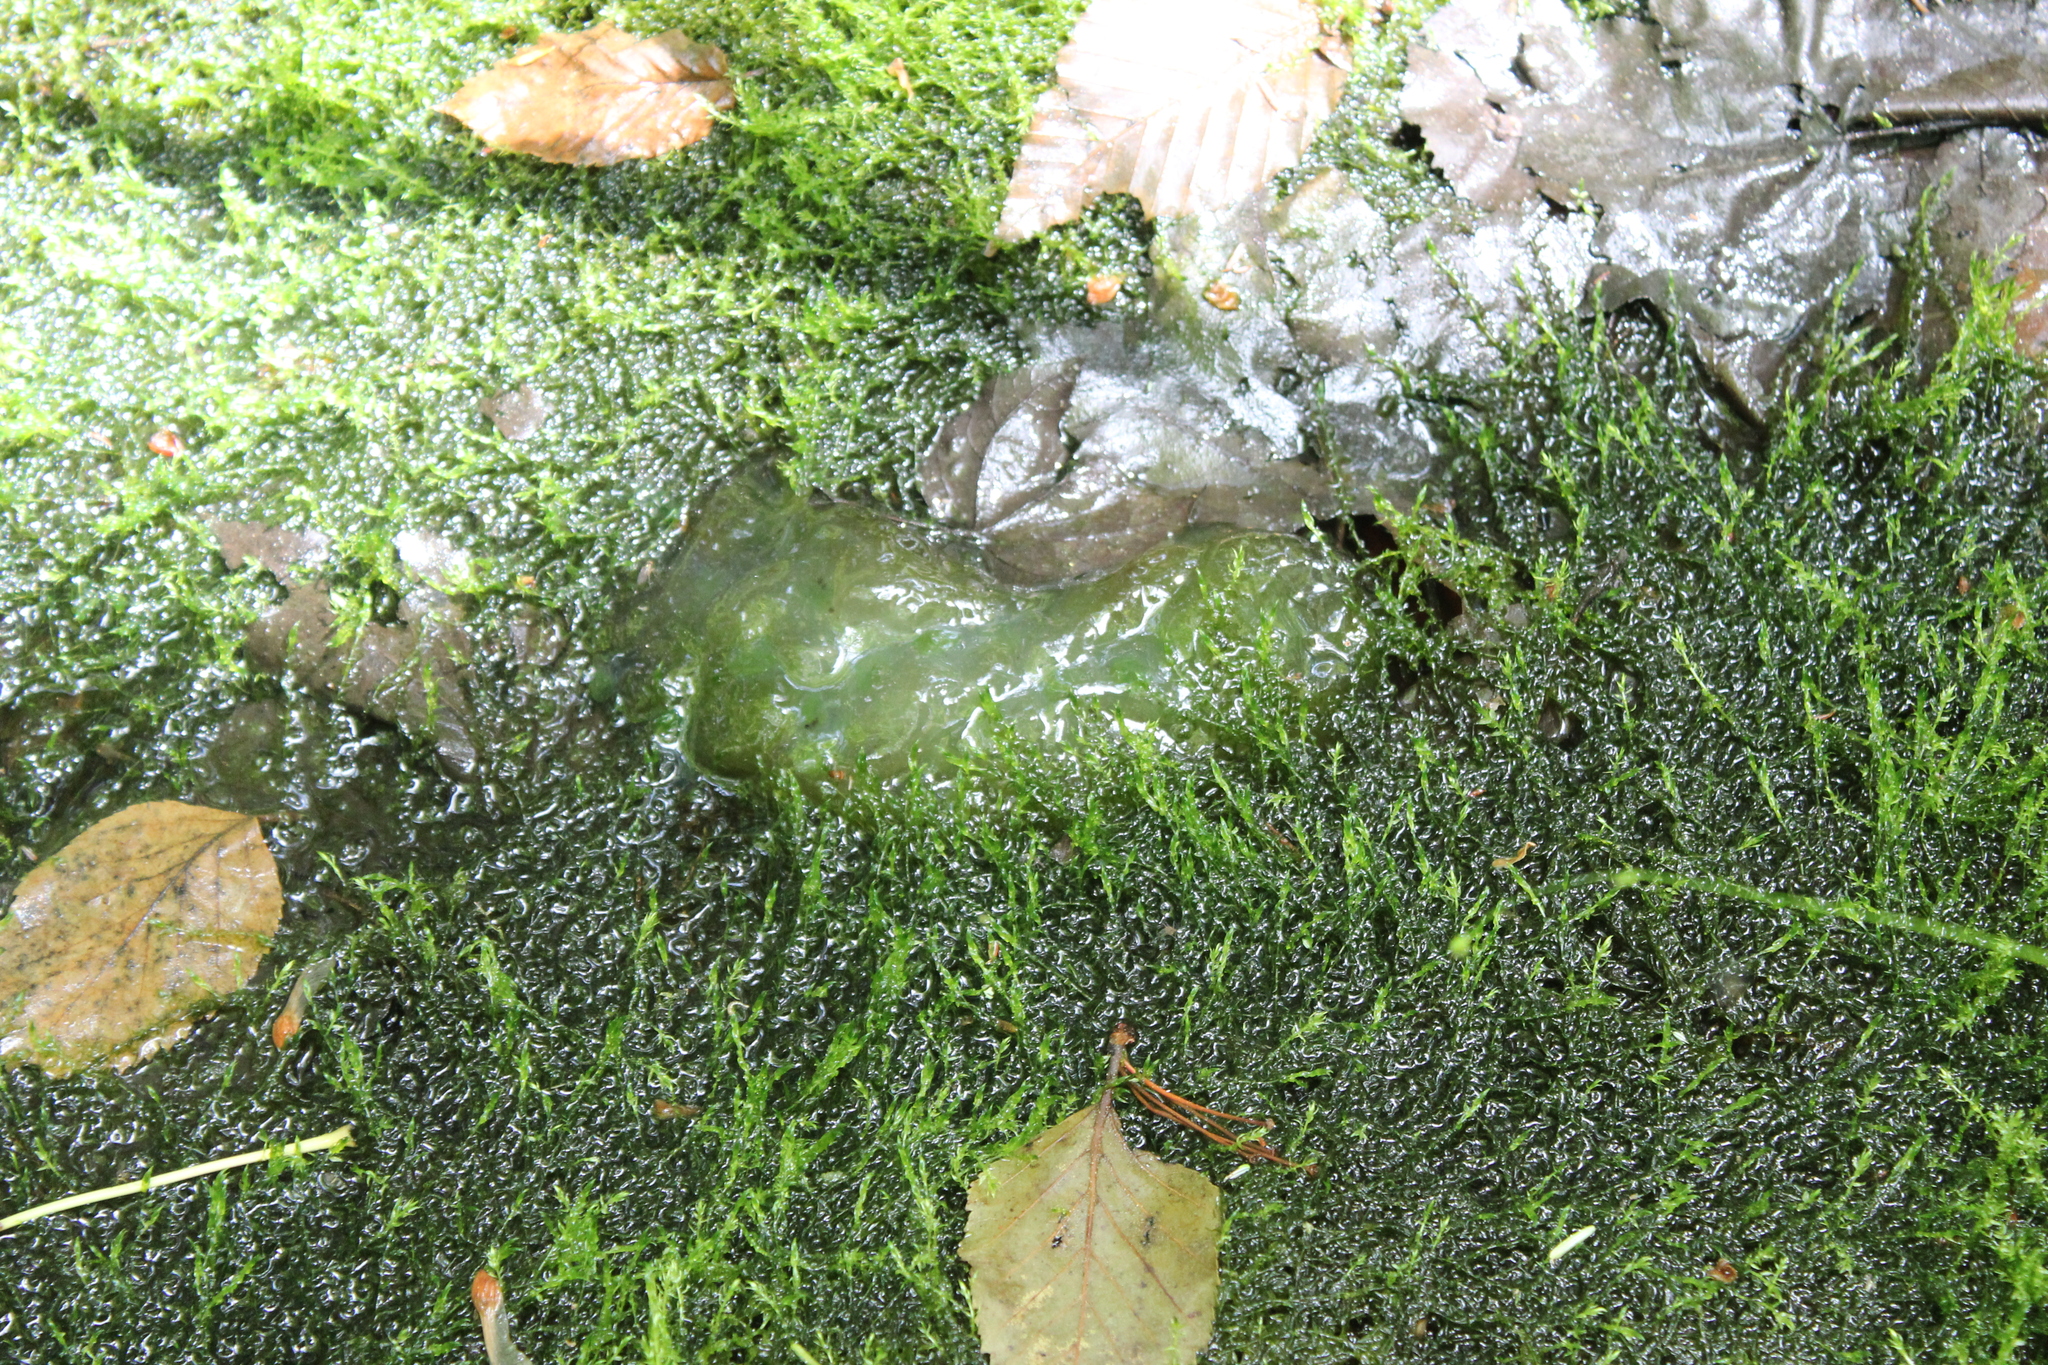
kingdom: Animalia
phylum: Chordata
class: Amphibia
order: Caudata
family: Ambystomatidae
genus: Ambystoma
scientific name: Ambystoma maculatum
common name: Spotted salamander
